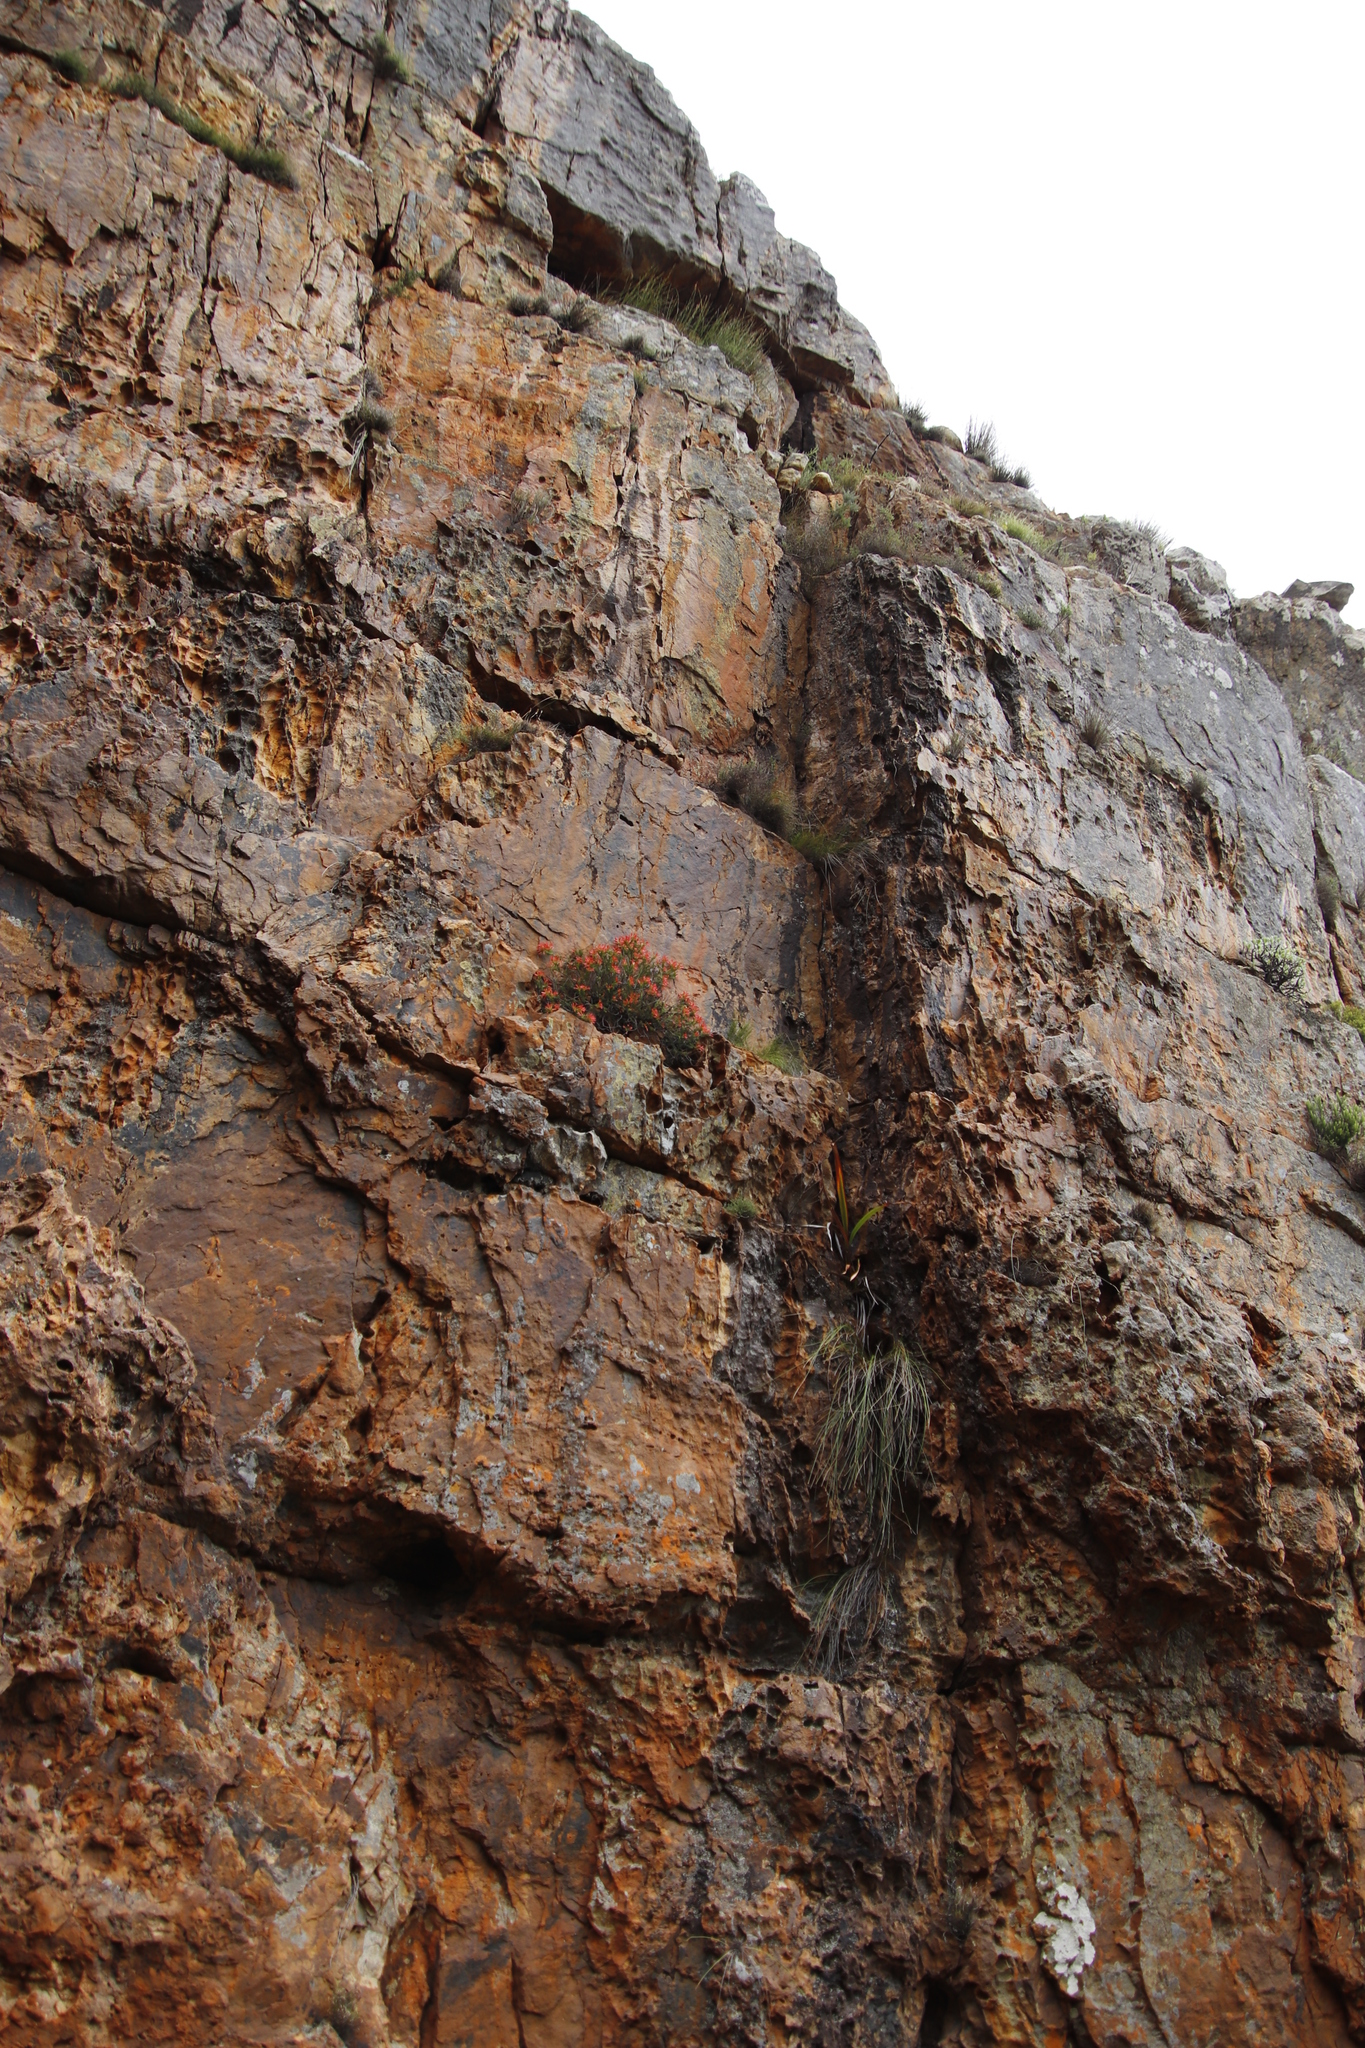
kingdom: Plantae
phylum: Tracheophyta
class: Magnoliopsida
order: Ericales
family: Ericaceae
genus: Erica
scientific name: Erica nevillei
